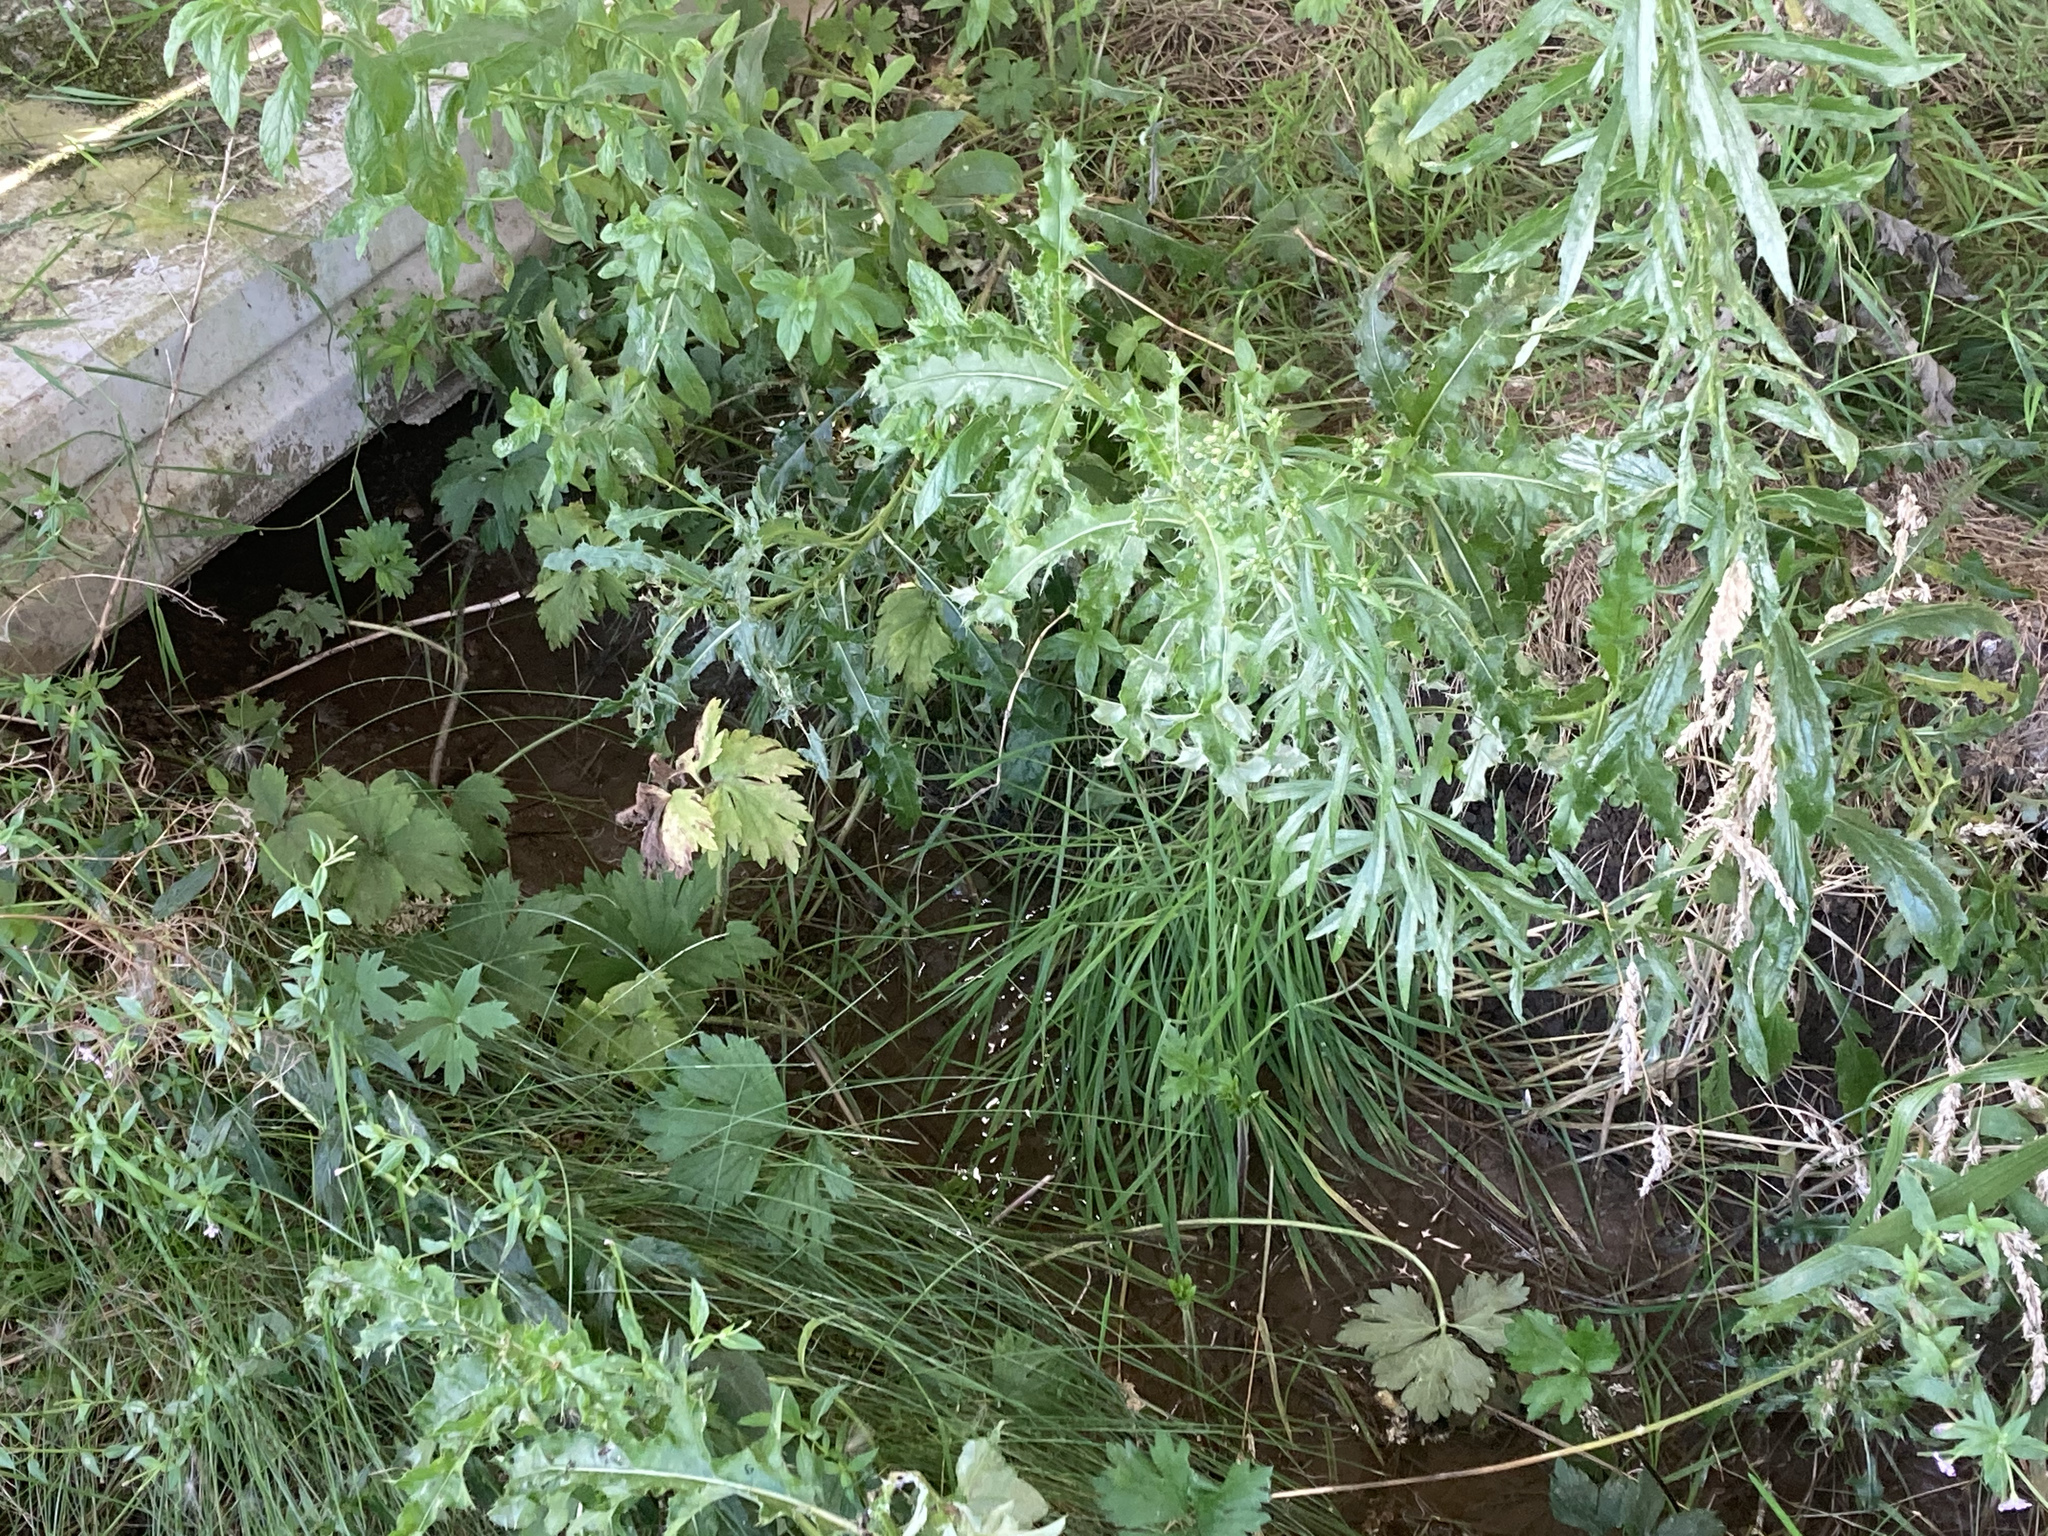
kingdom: Plantae
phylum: Tracheophyta
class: Magnoliopsida
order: Asterales
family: Asteraceae
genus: Cirsium
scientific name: Cirsium arvense
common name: Creeping thistle
